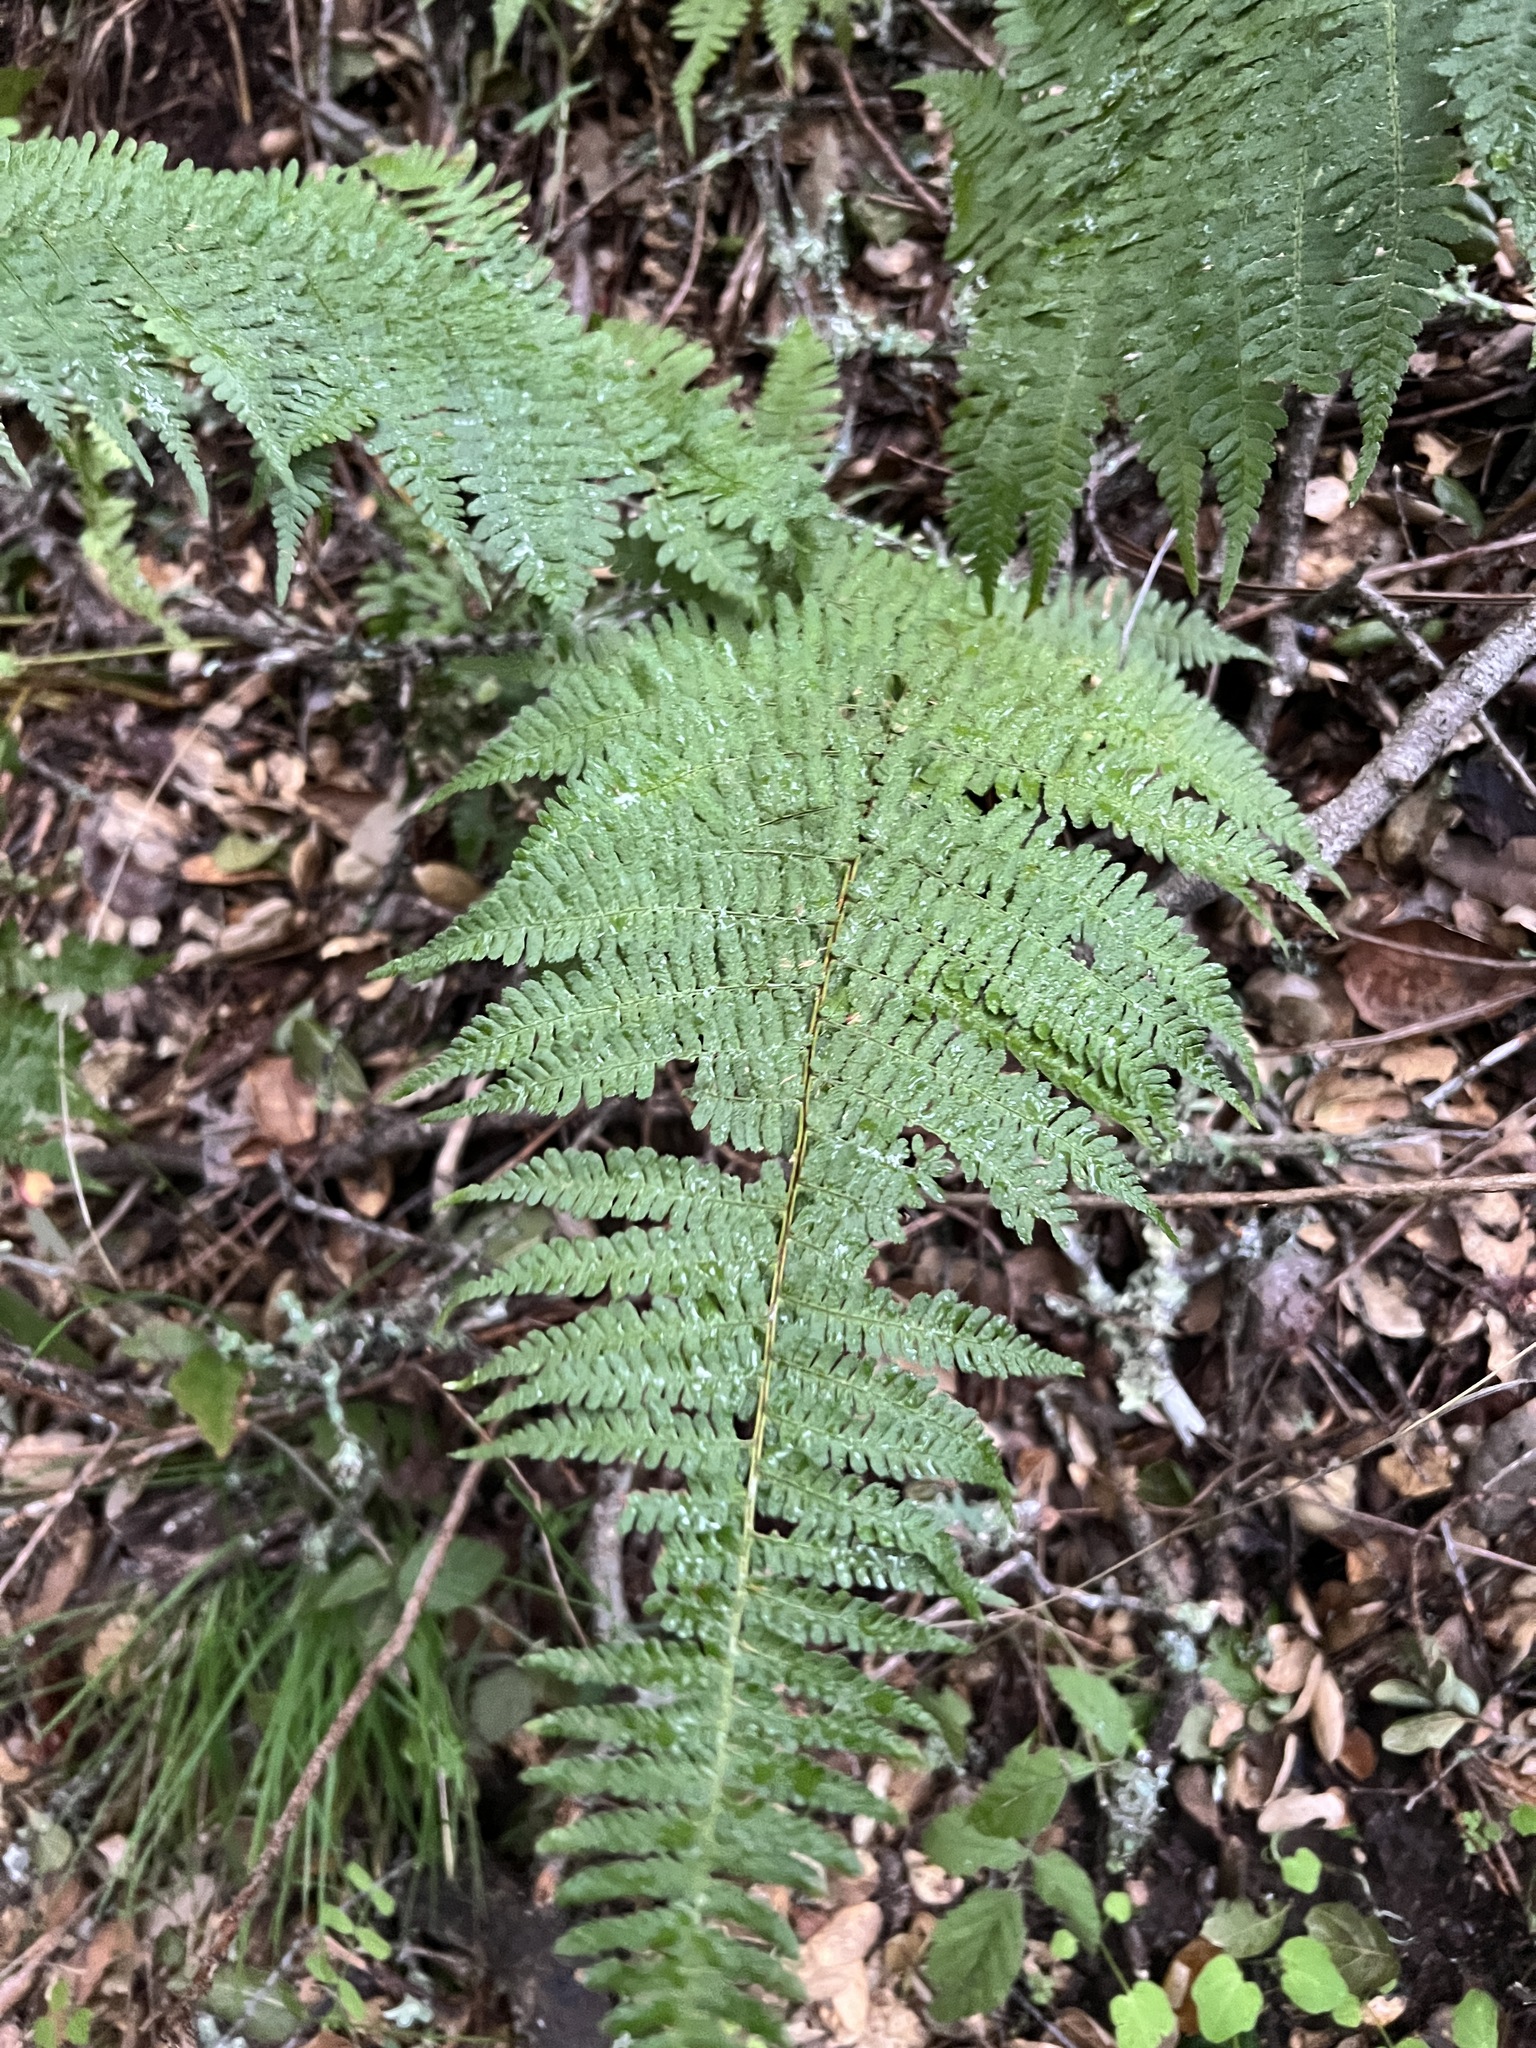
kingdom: Plantae
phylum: Tracheophyta
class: Polypodiopsida
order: Polypodiales
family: Dryopteridaceae
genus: Dryopteris
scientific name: Dryopteris arguta
